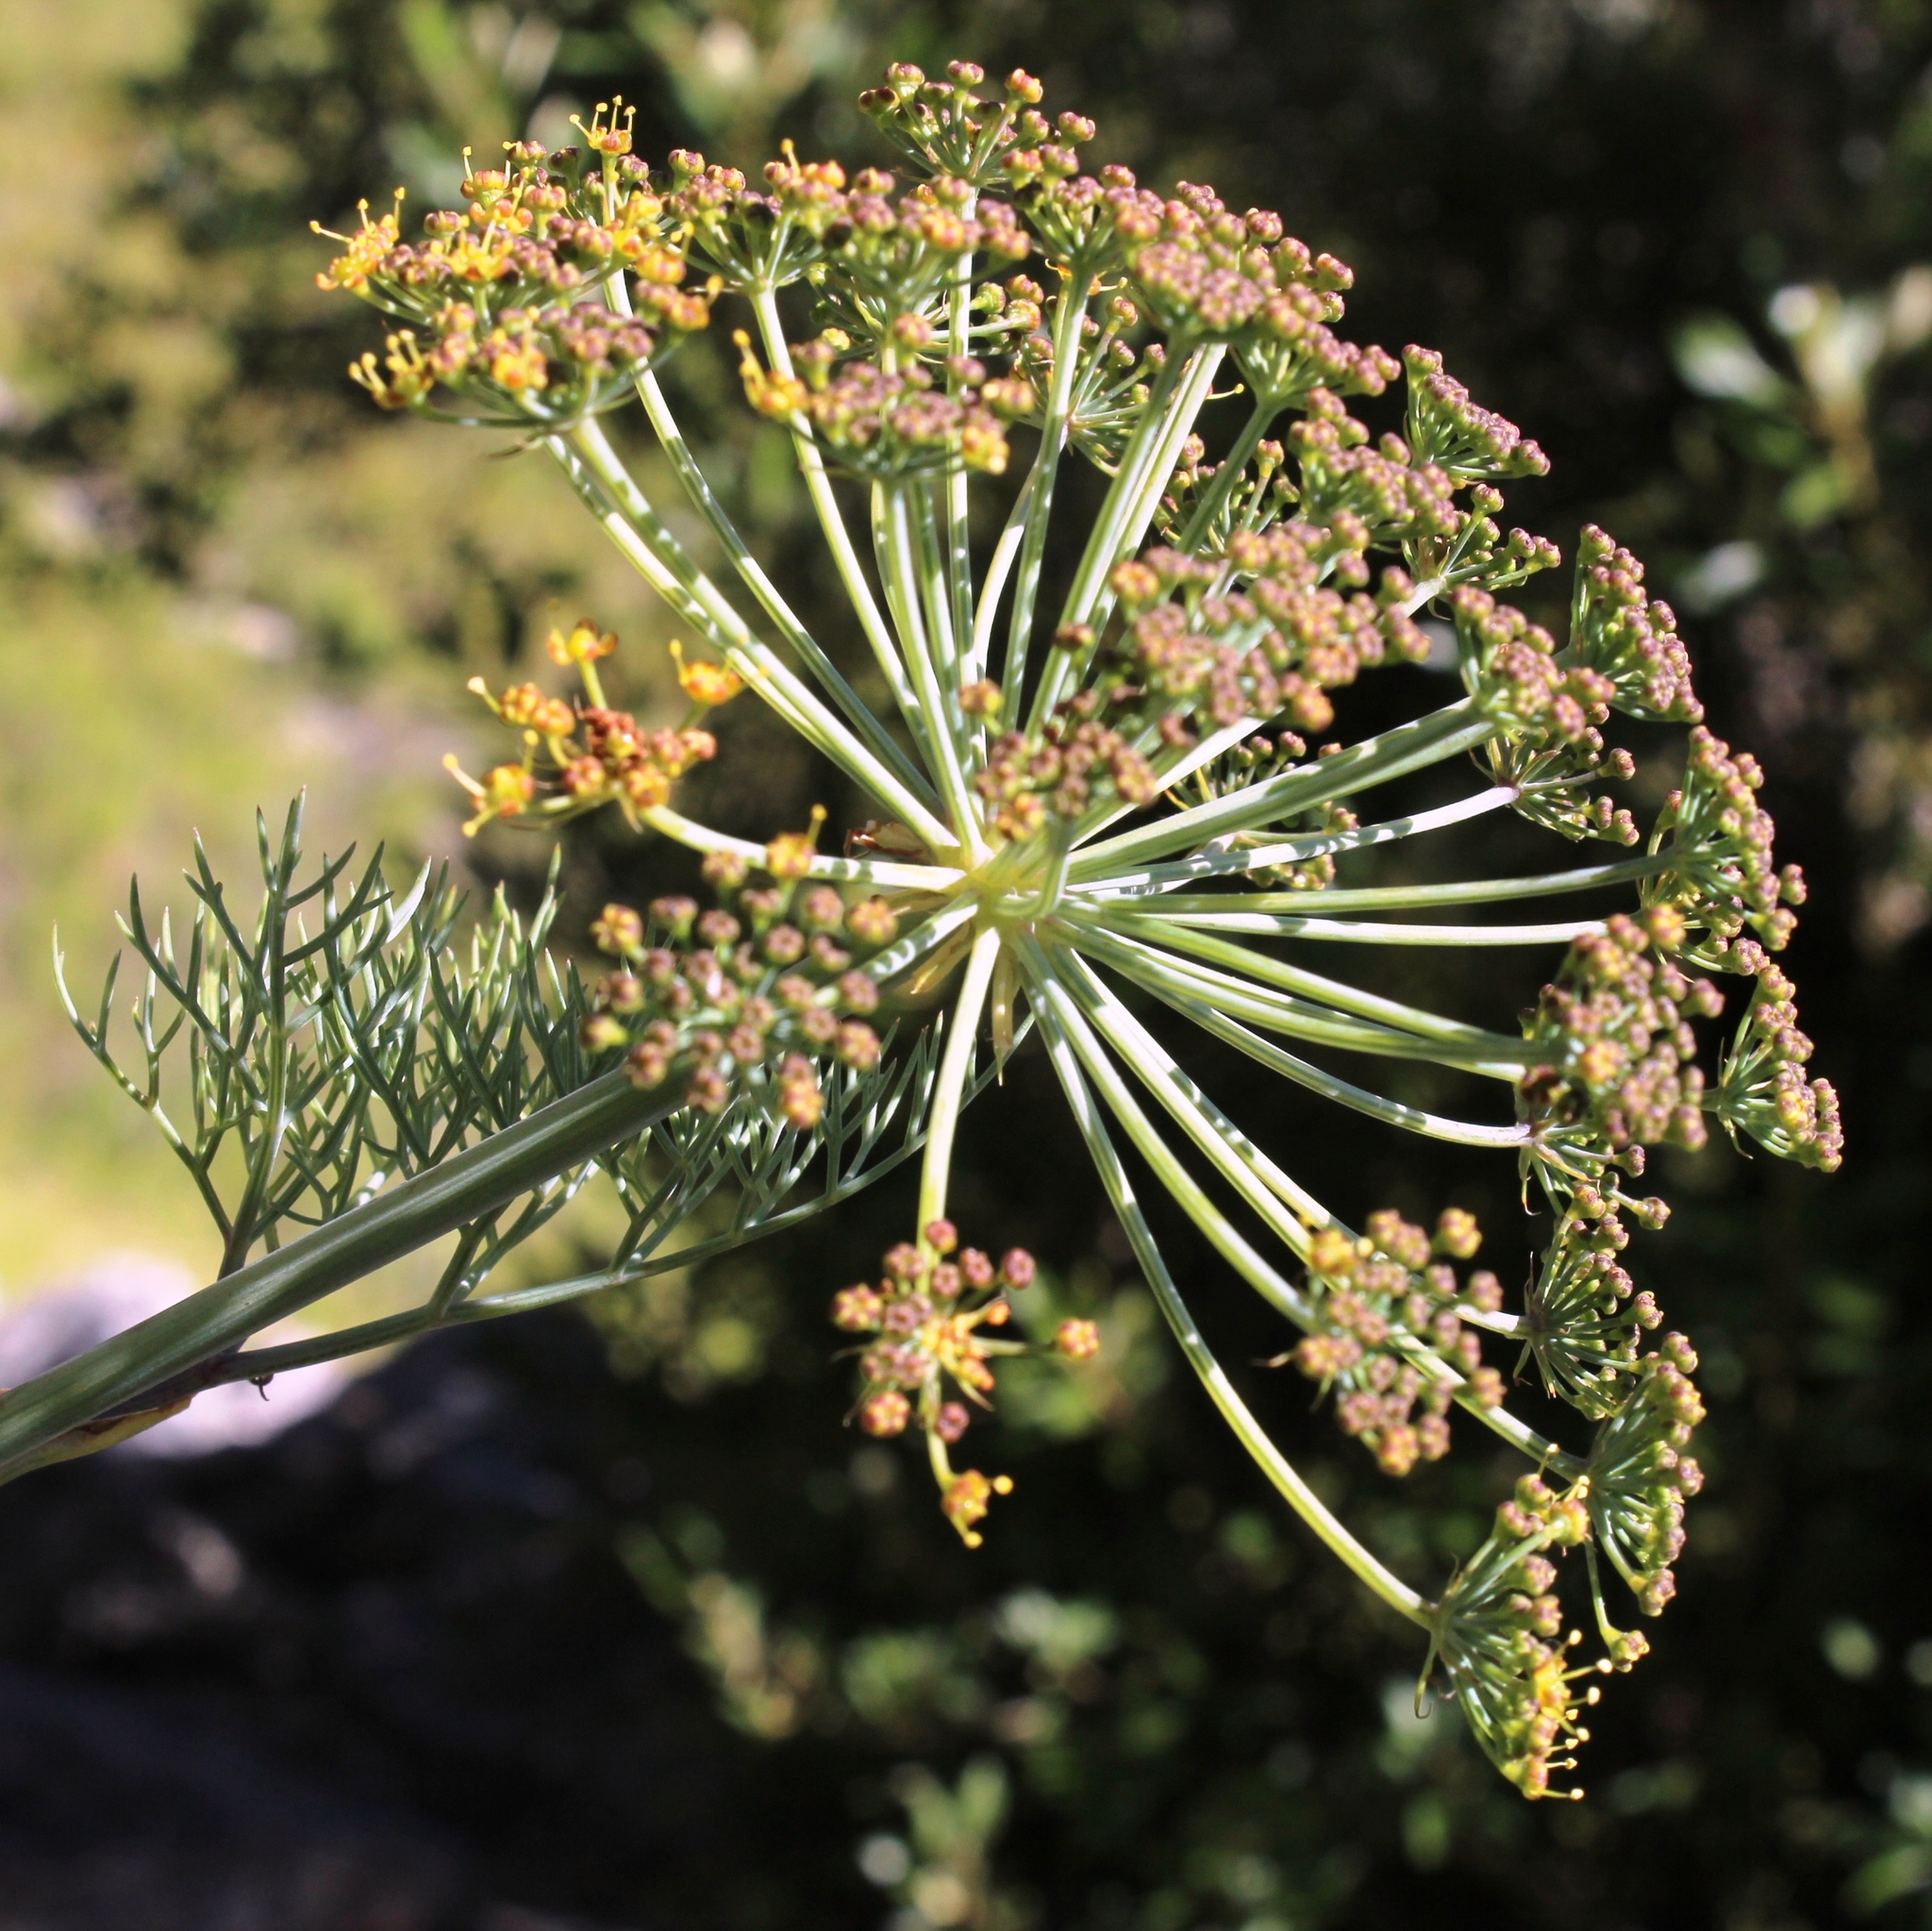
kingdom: Plantae
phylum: Tracheophyta
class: Magnoliopsida
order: Apiales
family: Apiaceae
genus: Notobubon
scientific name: Notobubon capense
